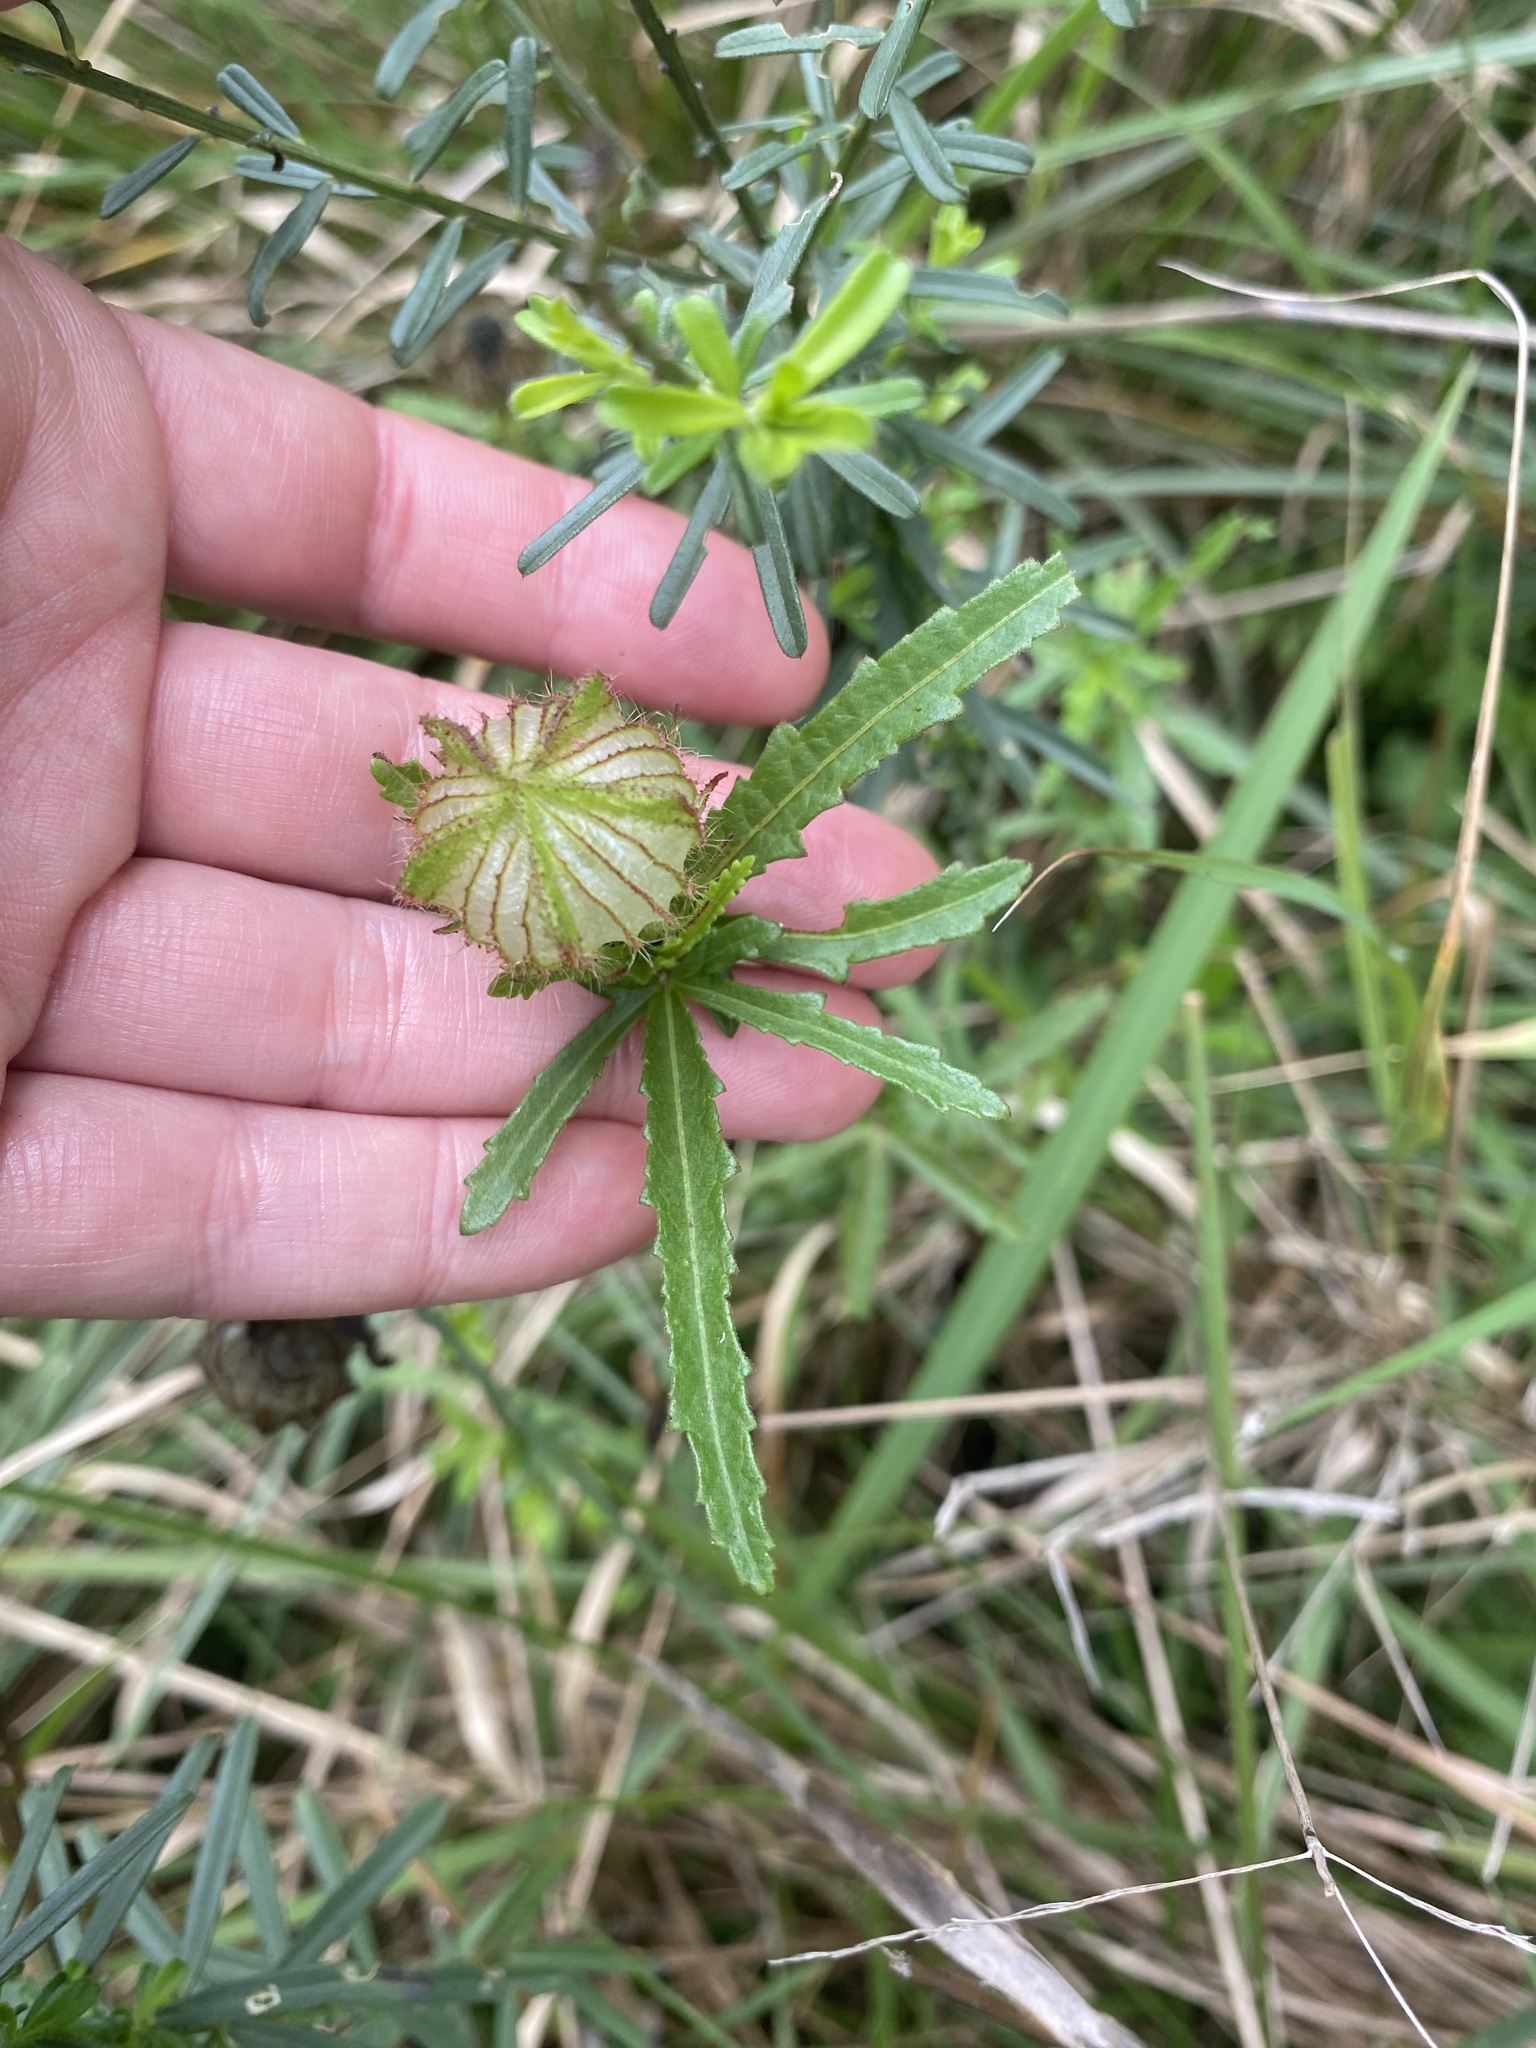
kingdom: Plantae
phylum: Tracheophyta
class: Magnoliopsida
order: Malvales
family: Malvaceae
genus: Hibiscus
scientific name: Hibiscus trionum
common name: Bladder ketmia
